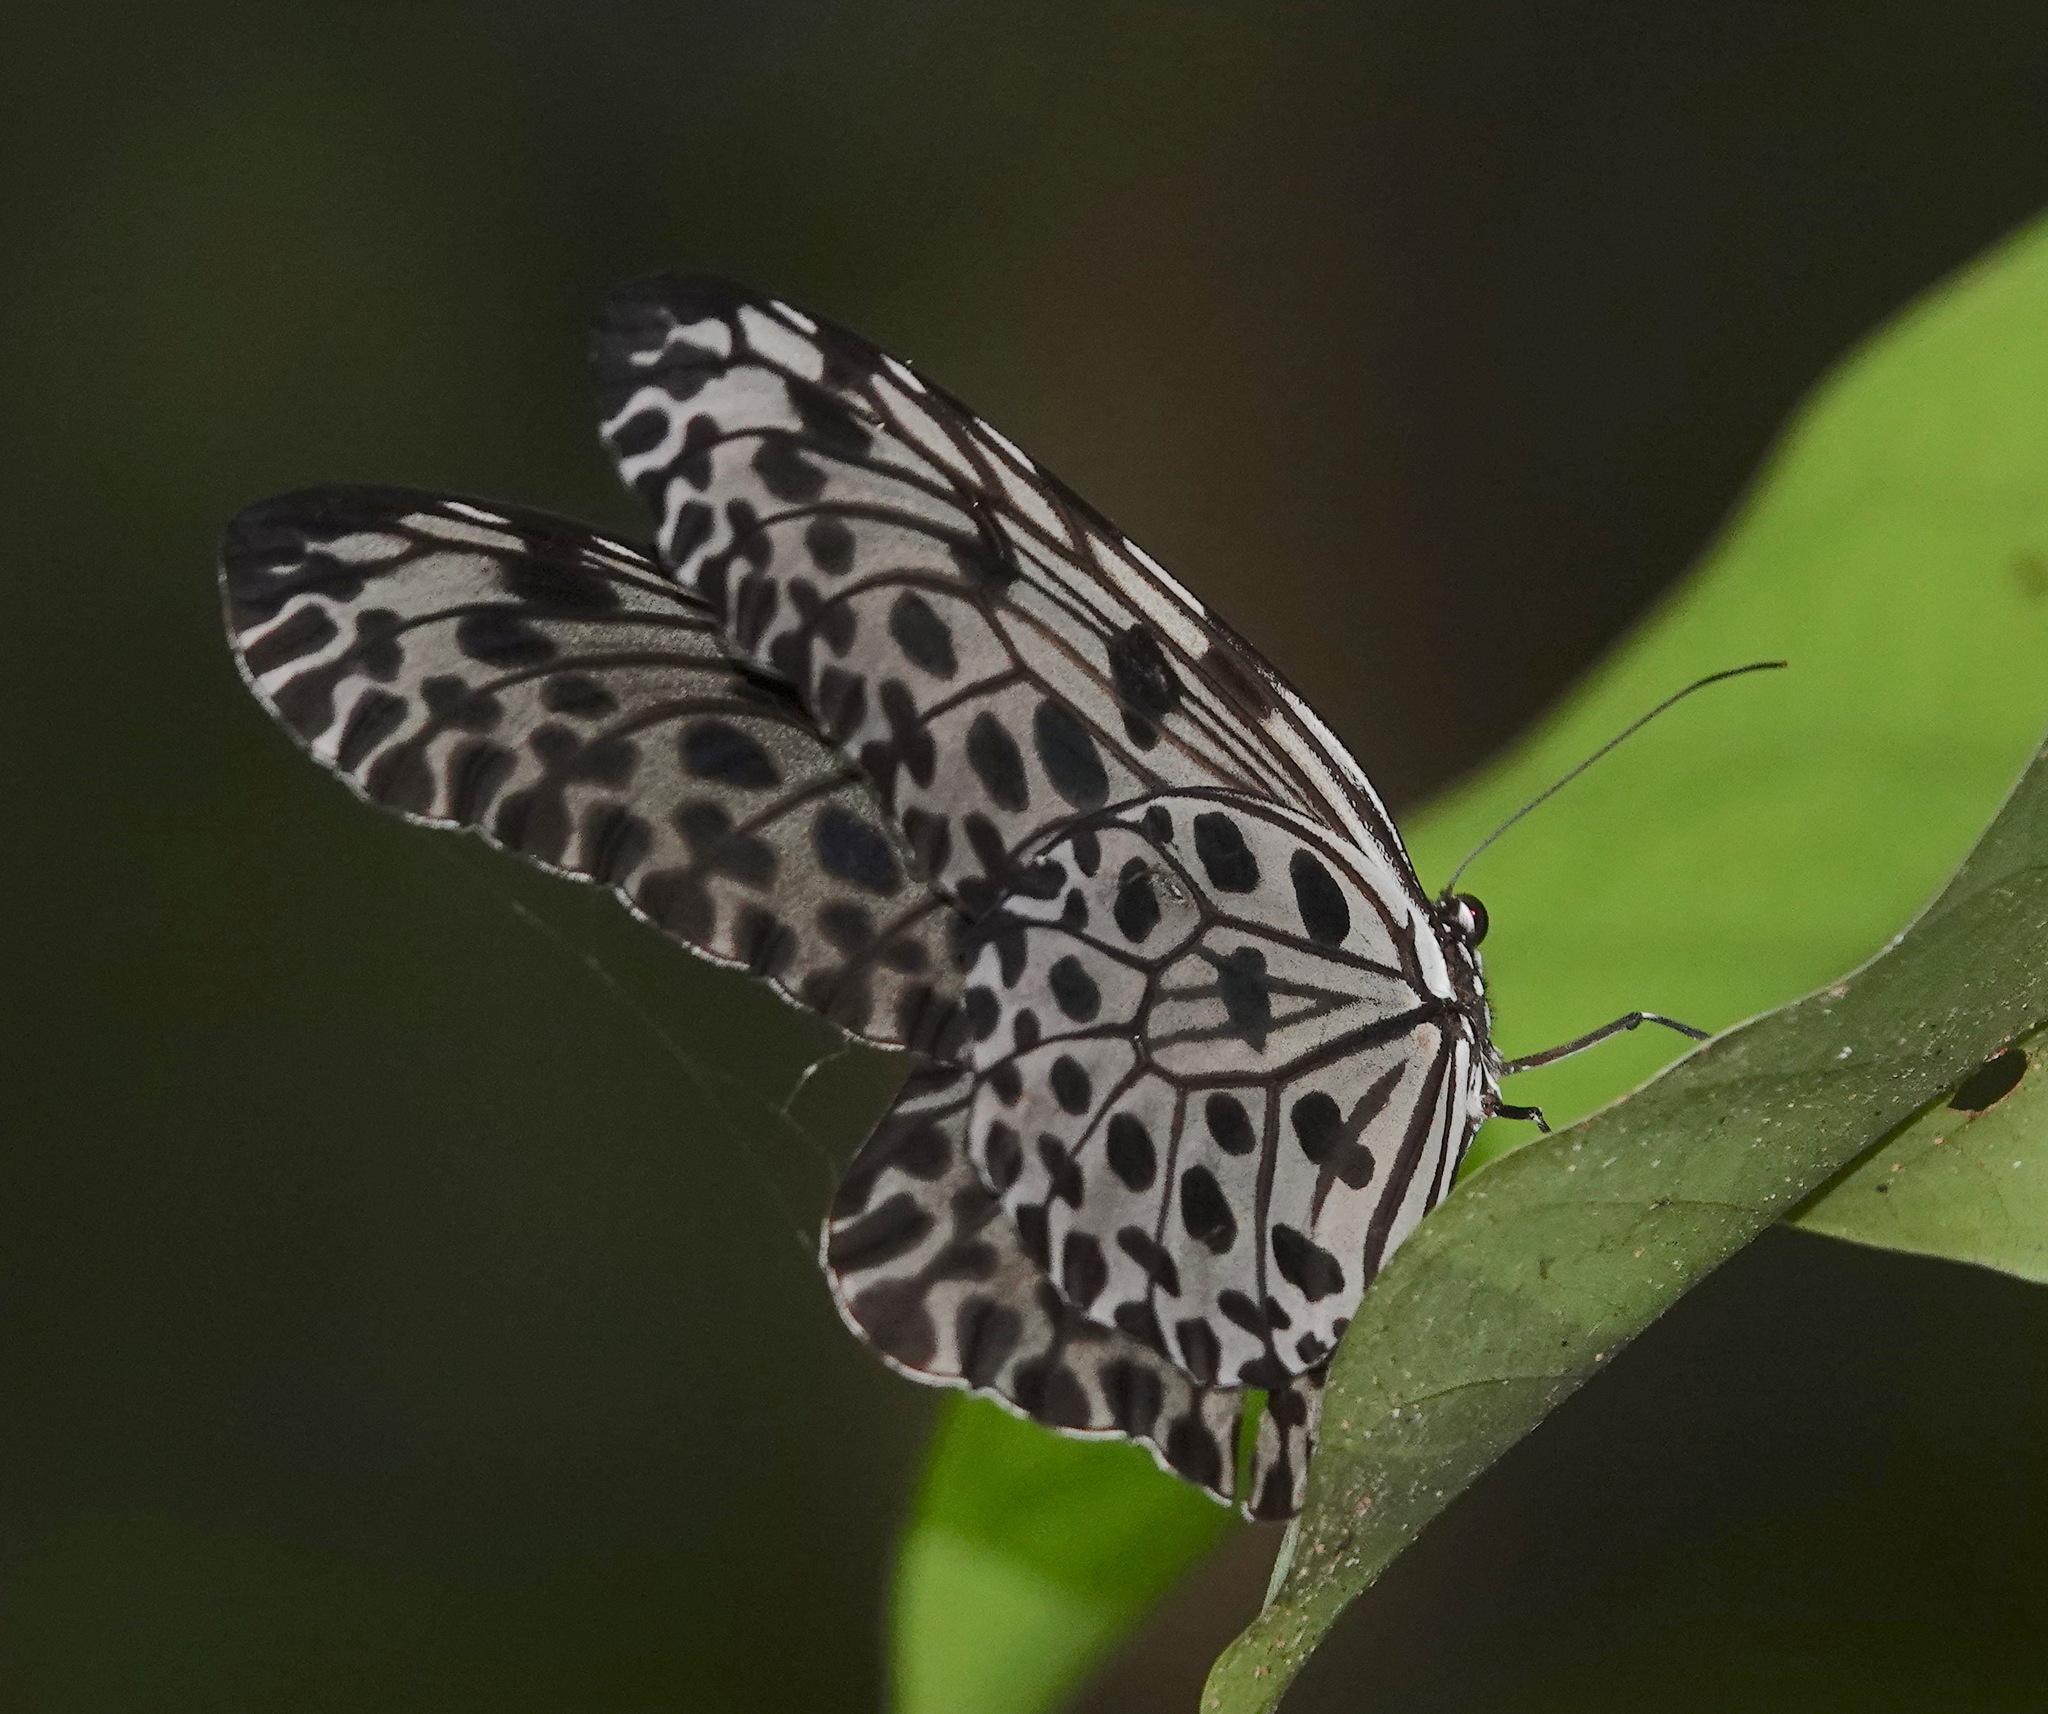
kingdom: Animalia
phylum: Arthropoda
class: Insecta
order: Lepidoptera
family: Nymphalidae
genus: Idea
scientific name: Idea lynceus
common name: Giant tree nymph
